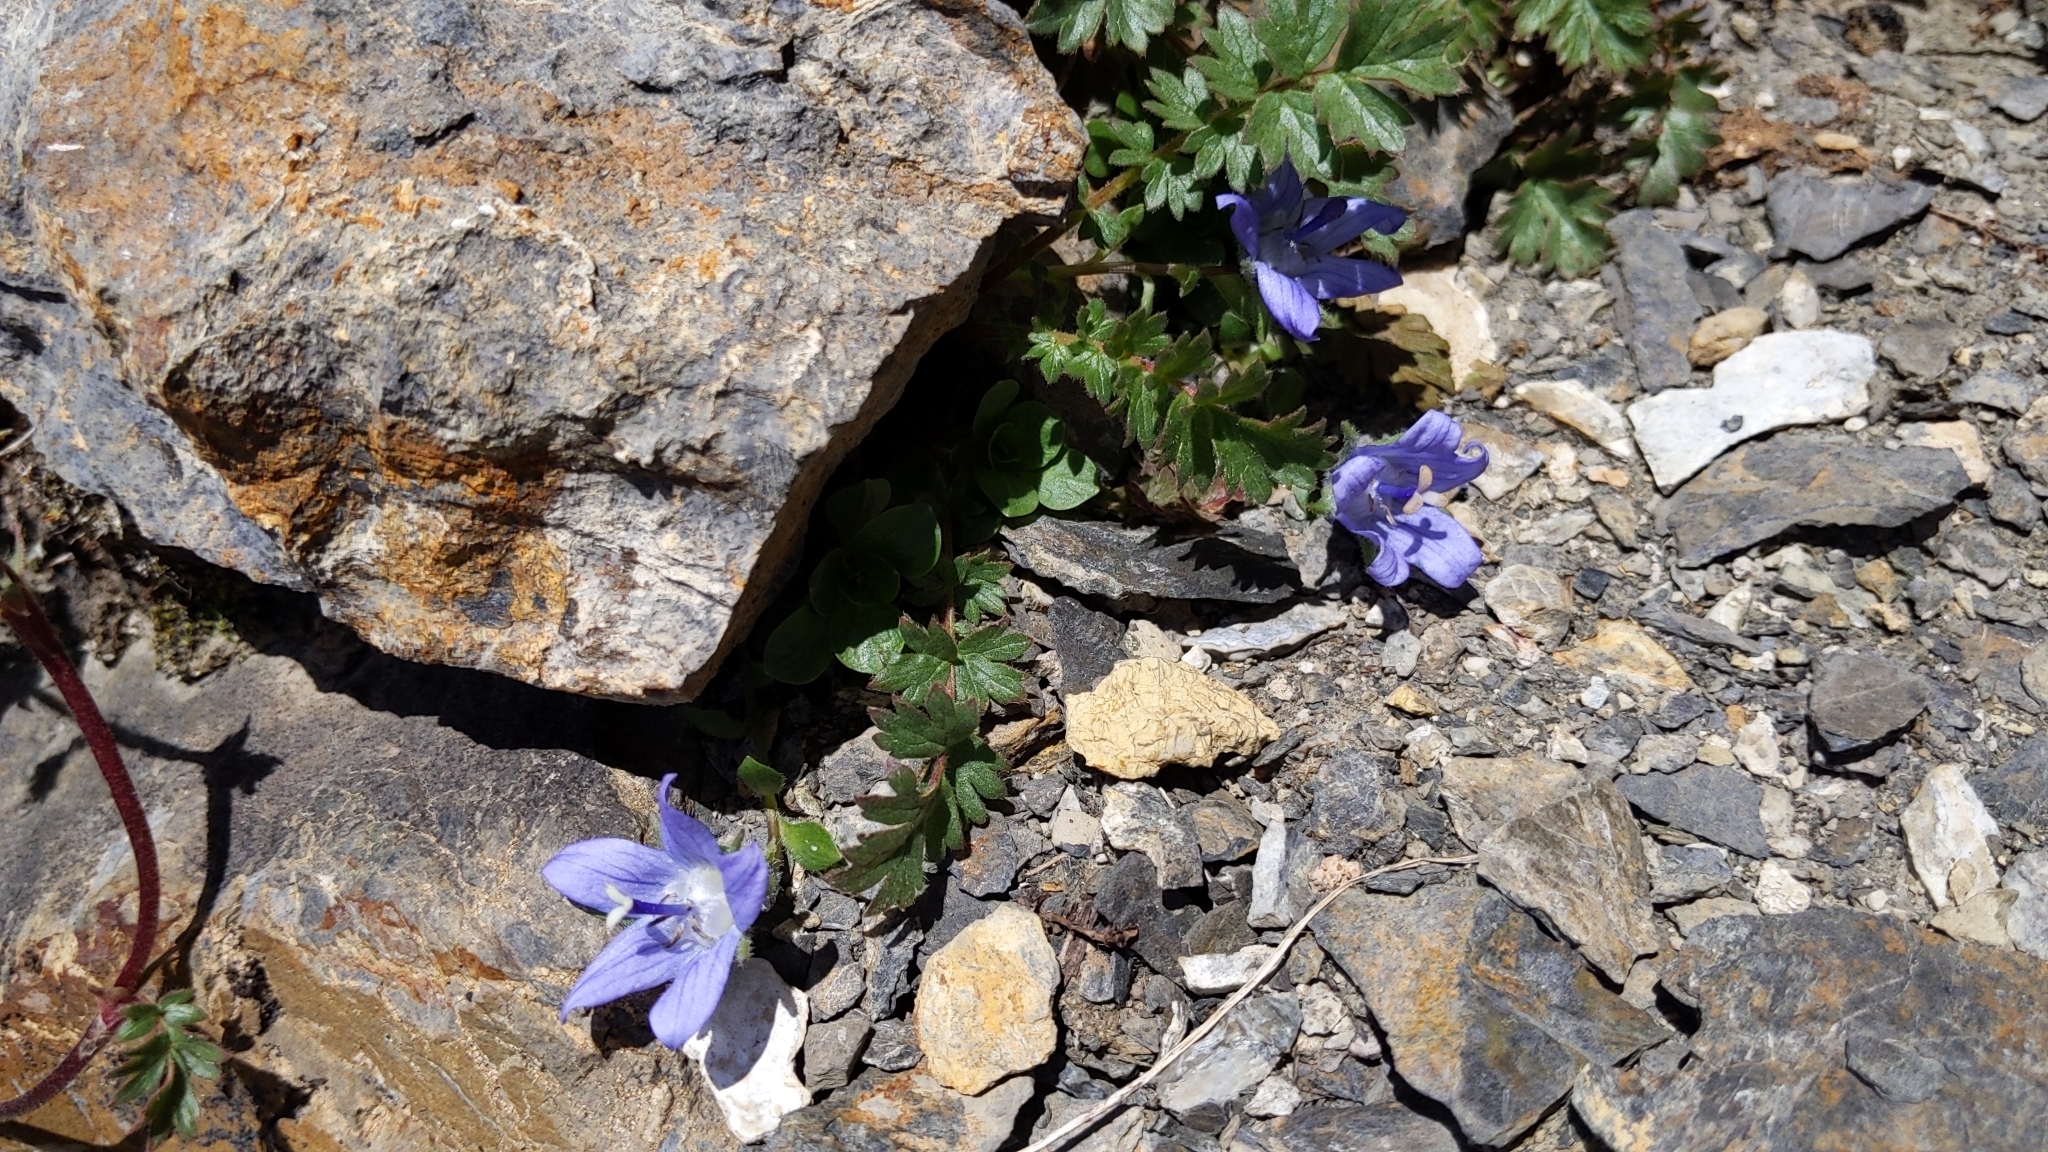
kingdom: Plantae
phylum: Tracheophyta
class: Magnoliopsida
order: Asterales
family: Campanulaceae
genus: Campanula
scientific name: Campanula cenisia
